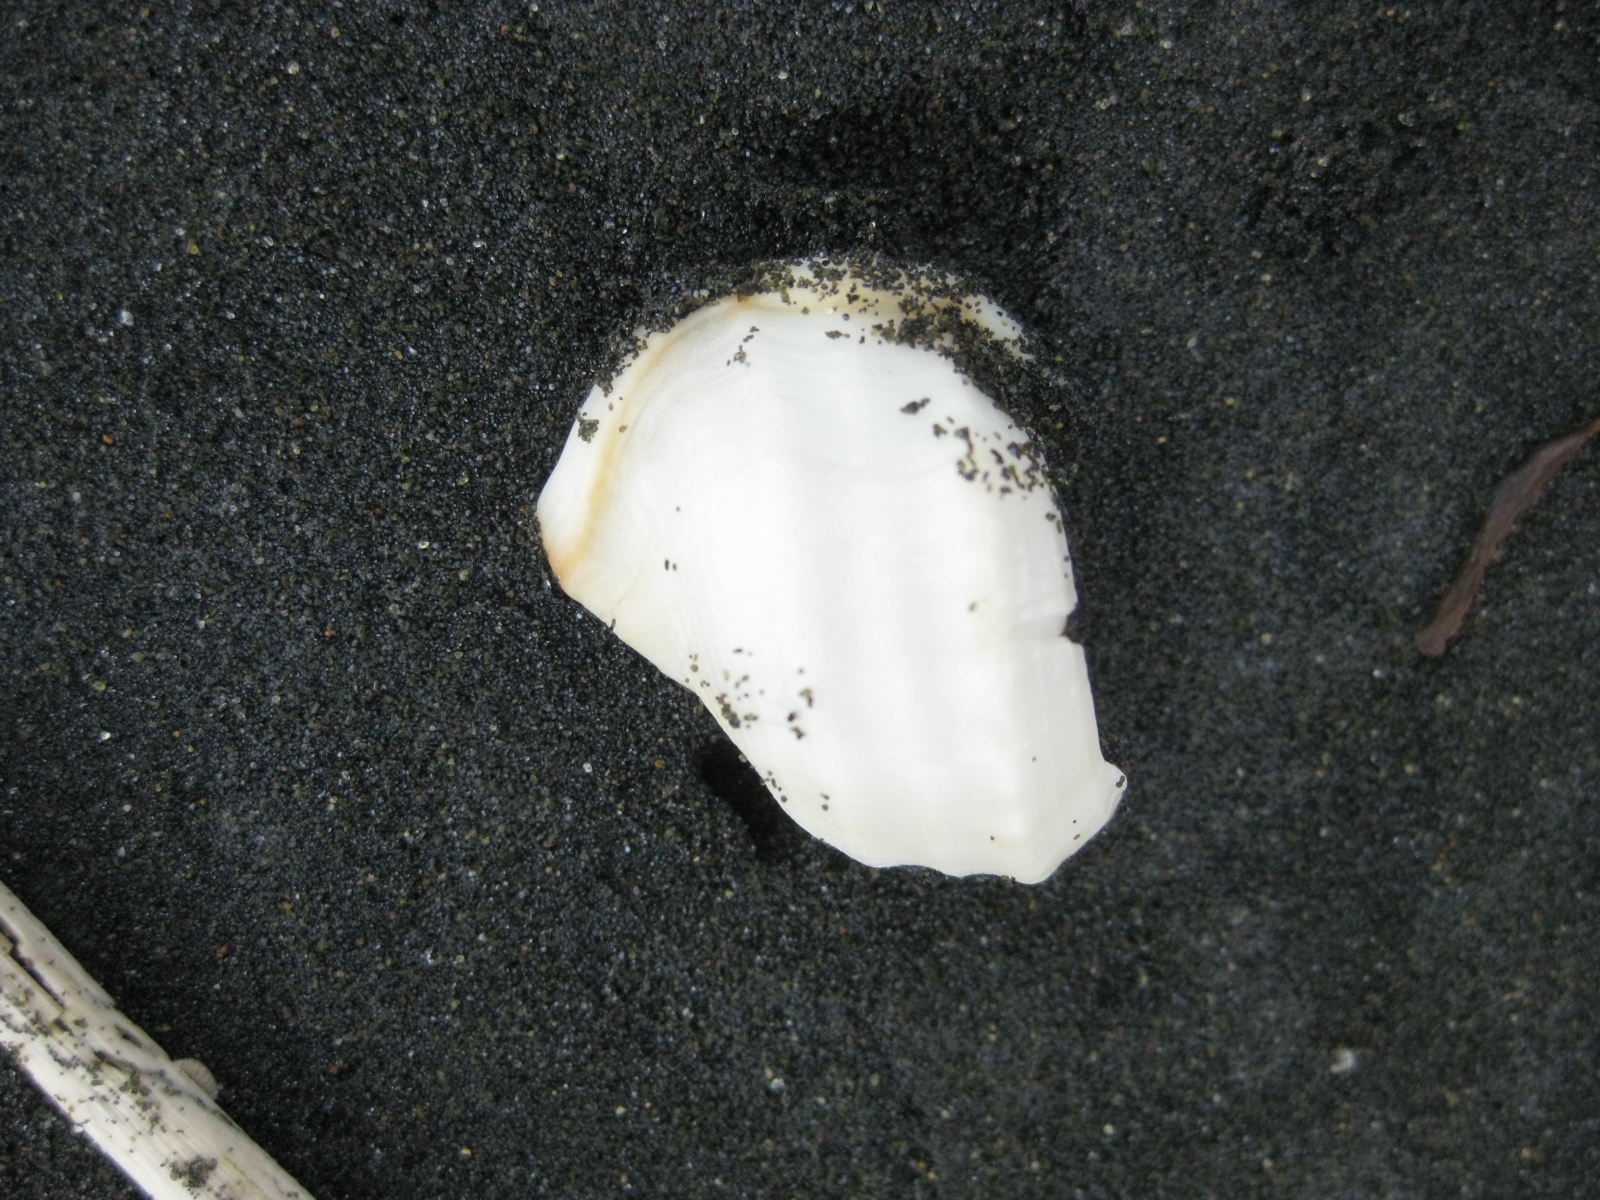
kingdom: Animalia
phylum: Mollusca
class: Gastropoda
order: Littorinimorpha
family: Struthiolariidae
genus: Pelicaria
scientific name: Pelicaria vermis
